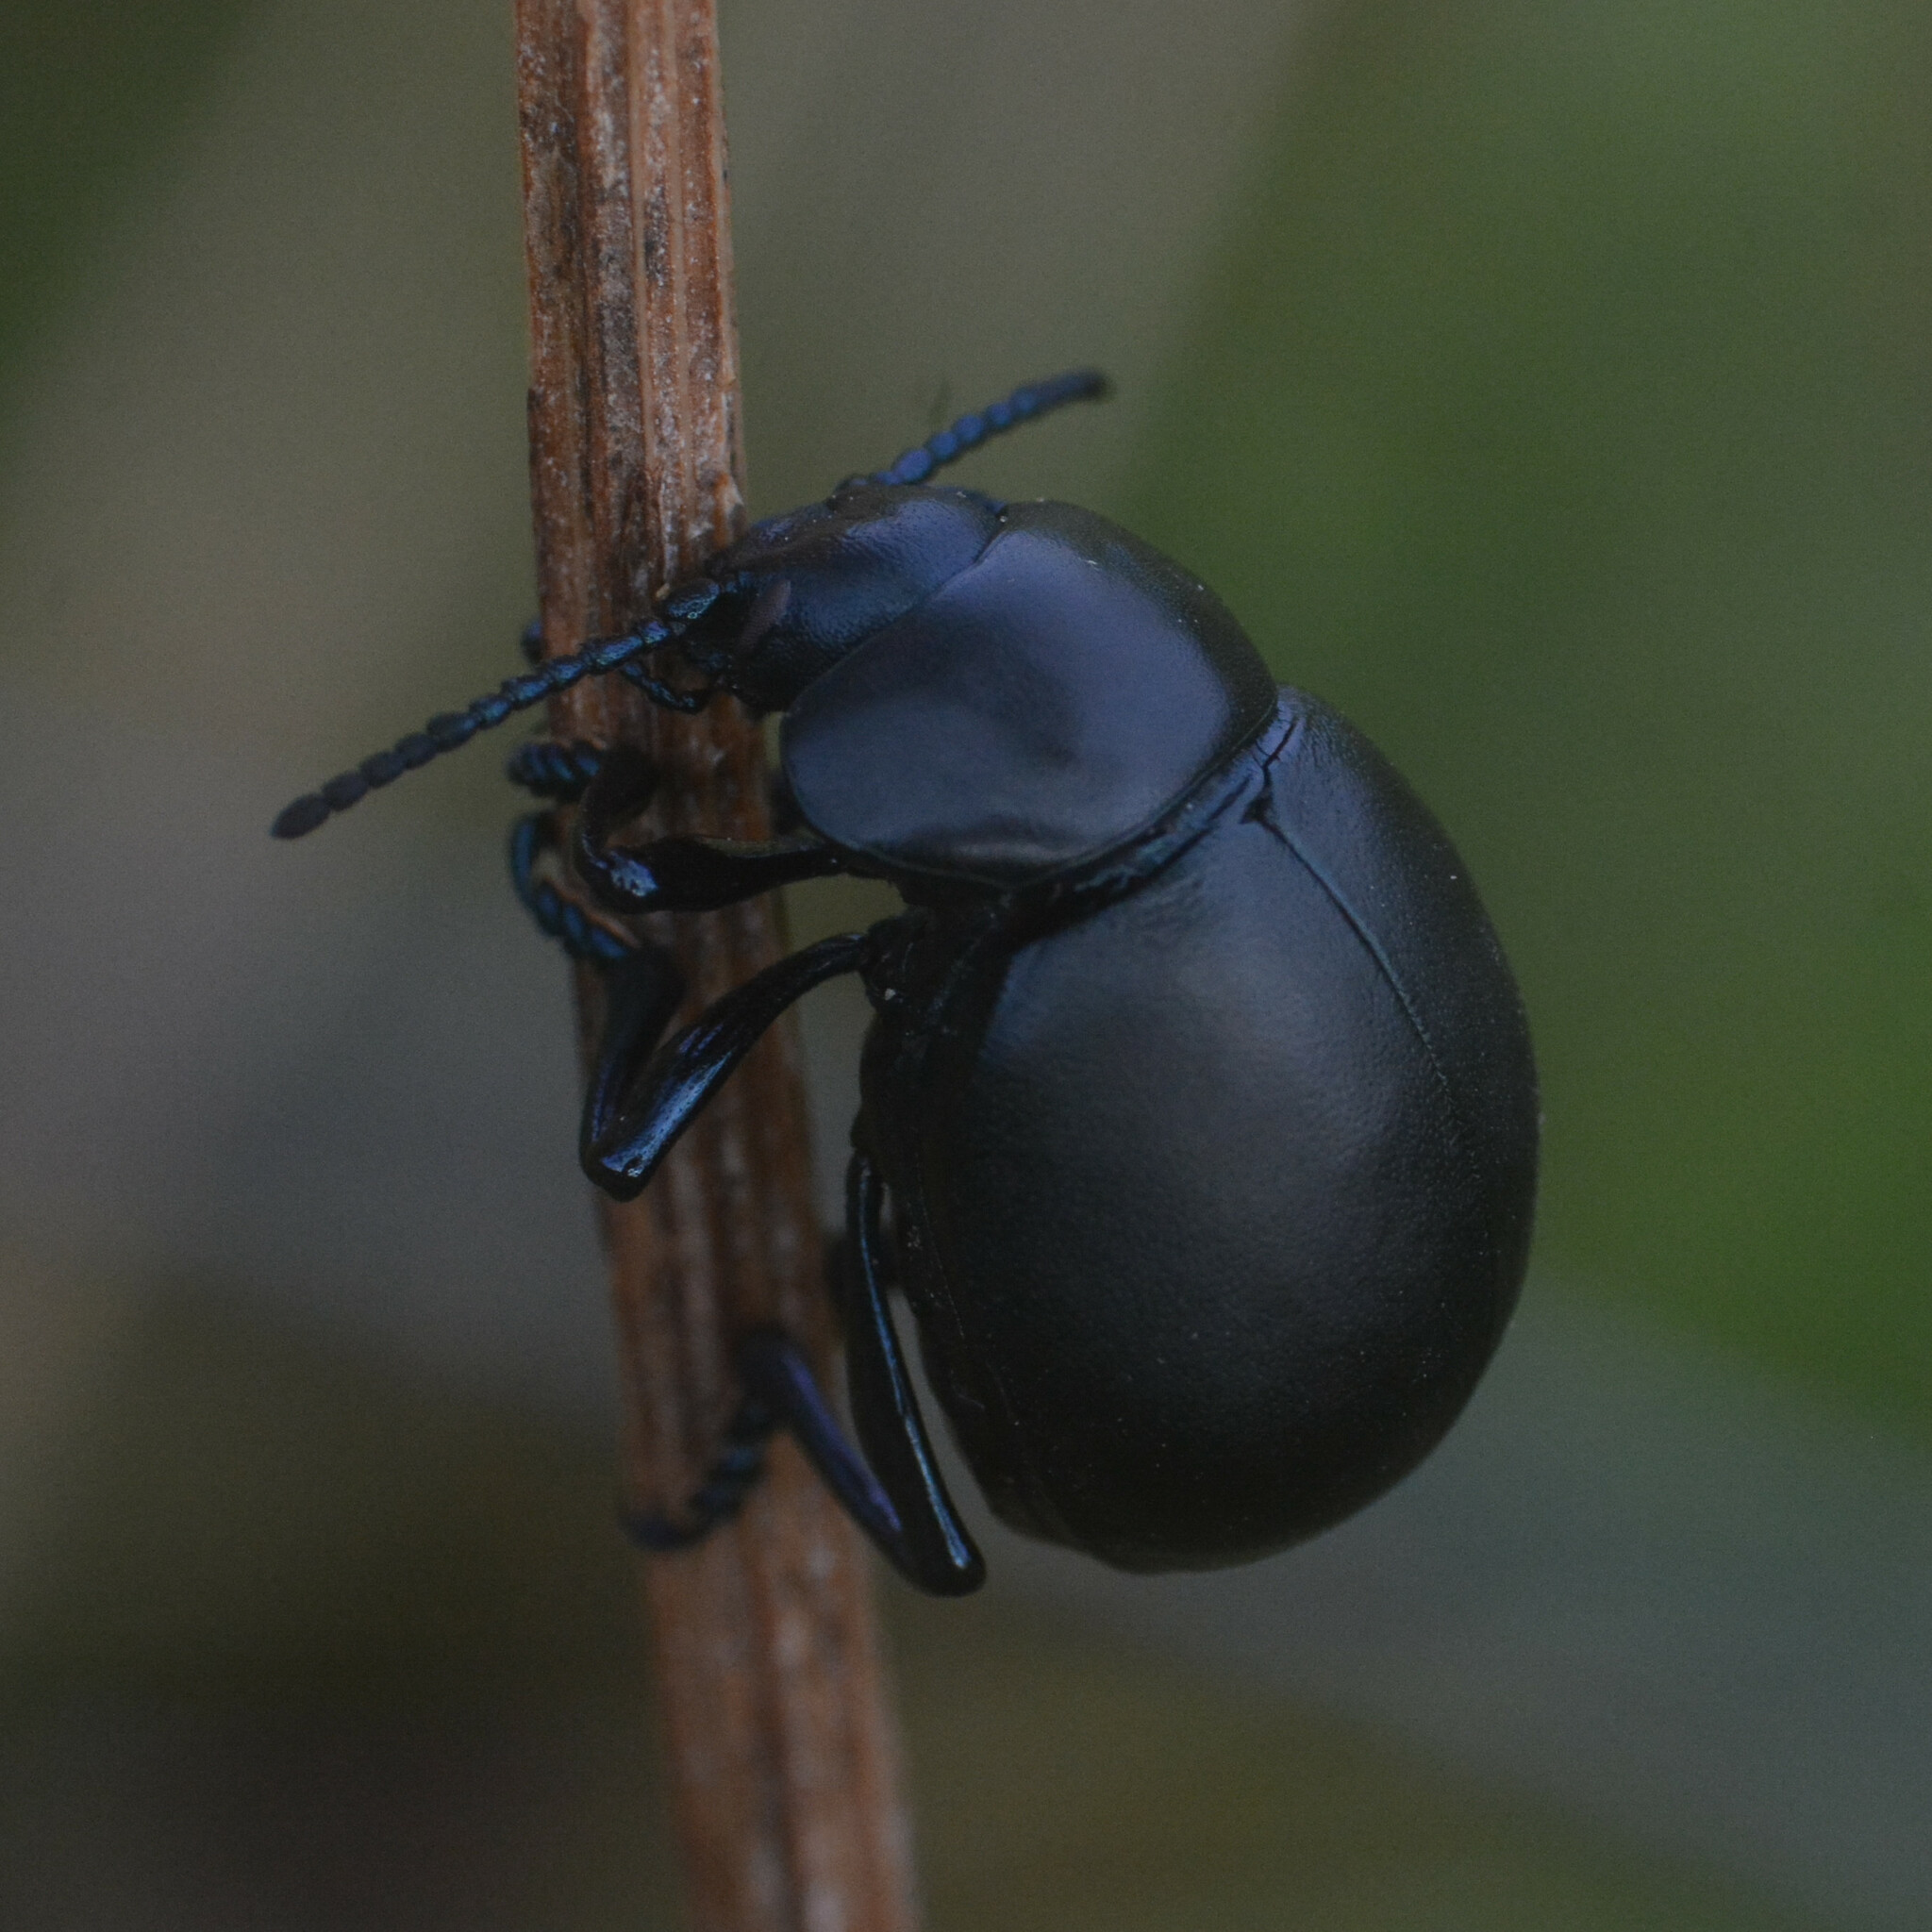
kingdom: Animalia
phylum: Arthropoda
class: Insecta
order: Coleoptera
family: Chrysomelidae
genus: Timarcha
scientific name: Timarcha tenebricosa
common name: Bloody-nosed beetle
